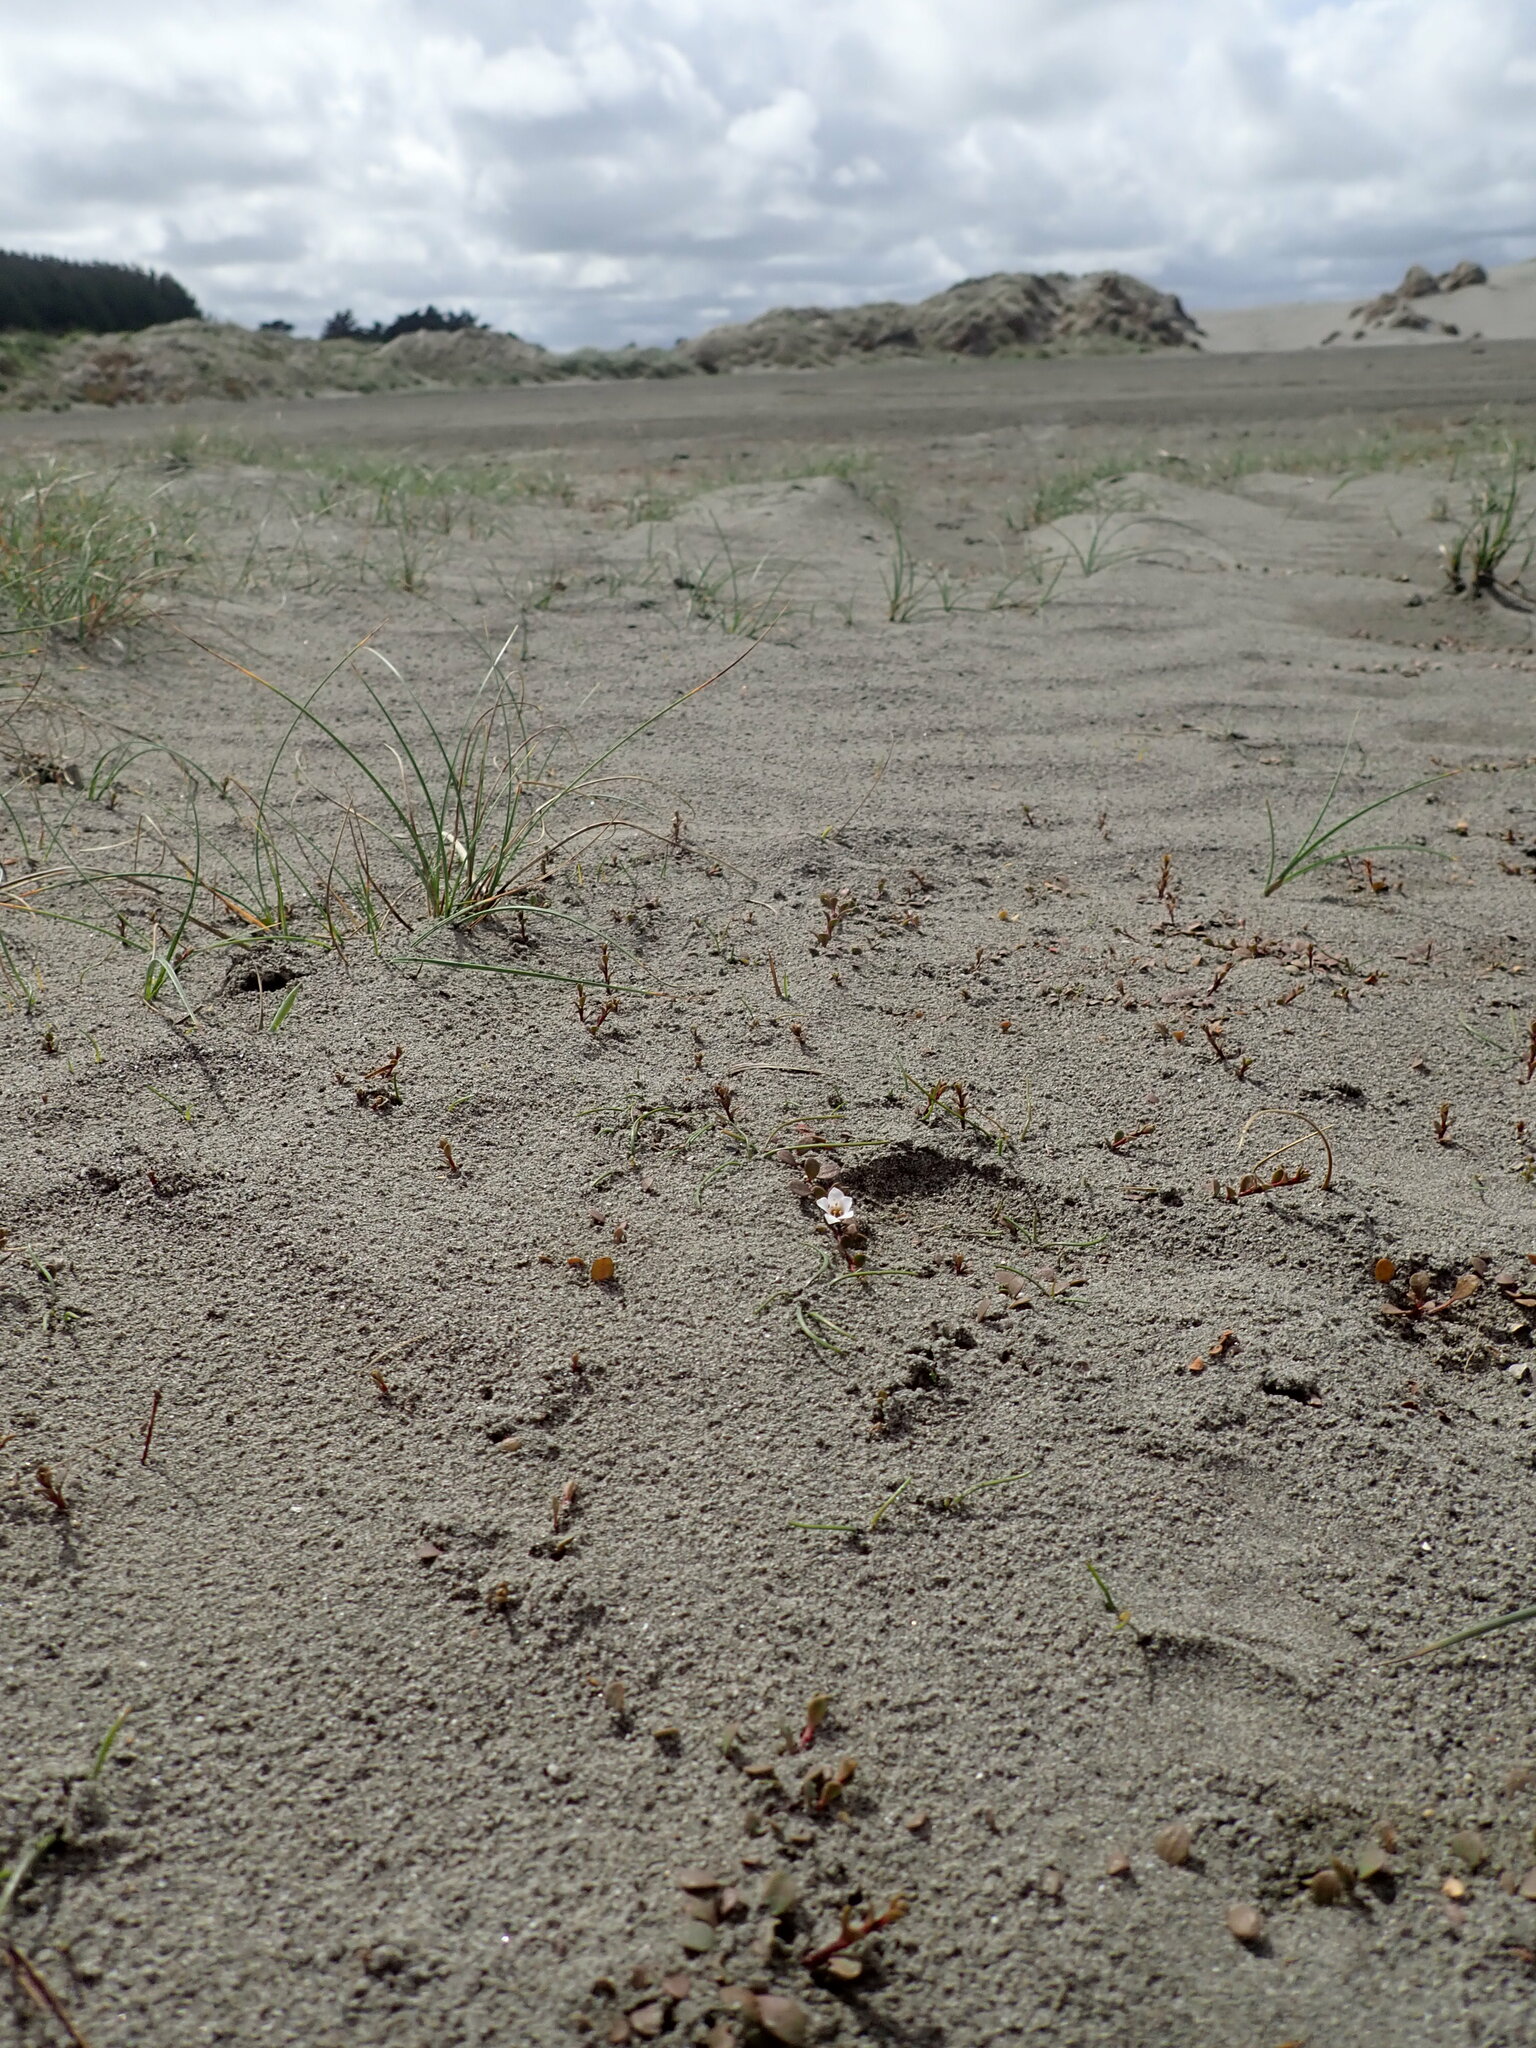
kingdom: Plantae
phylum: Tracheophyta
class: Magnoliopsida
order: Ericales
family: Primulaceae
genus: Samolus
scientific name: Samolus repens
